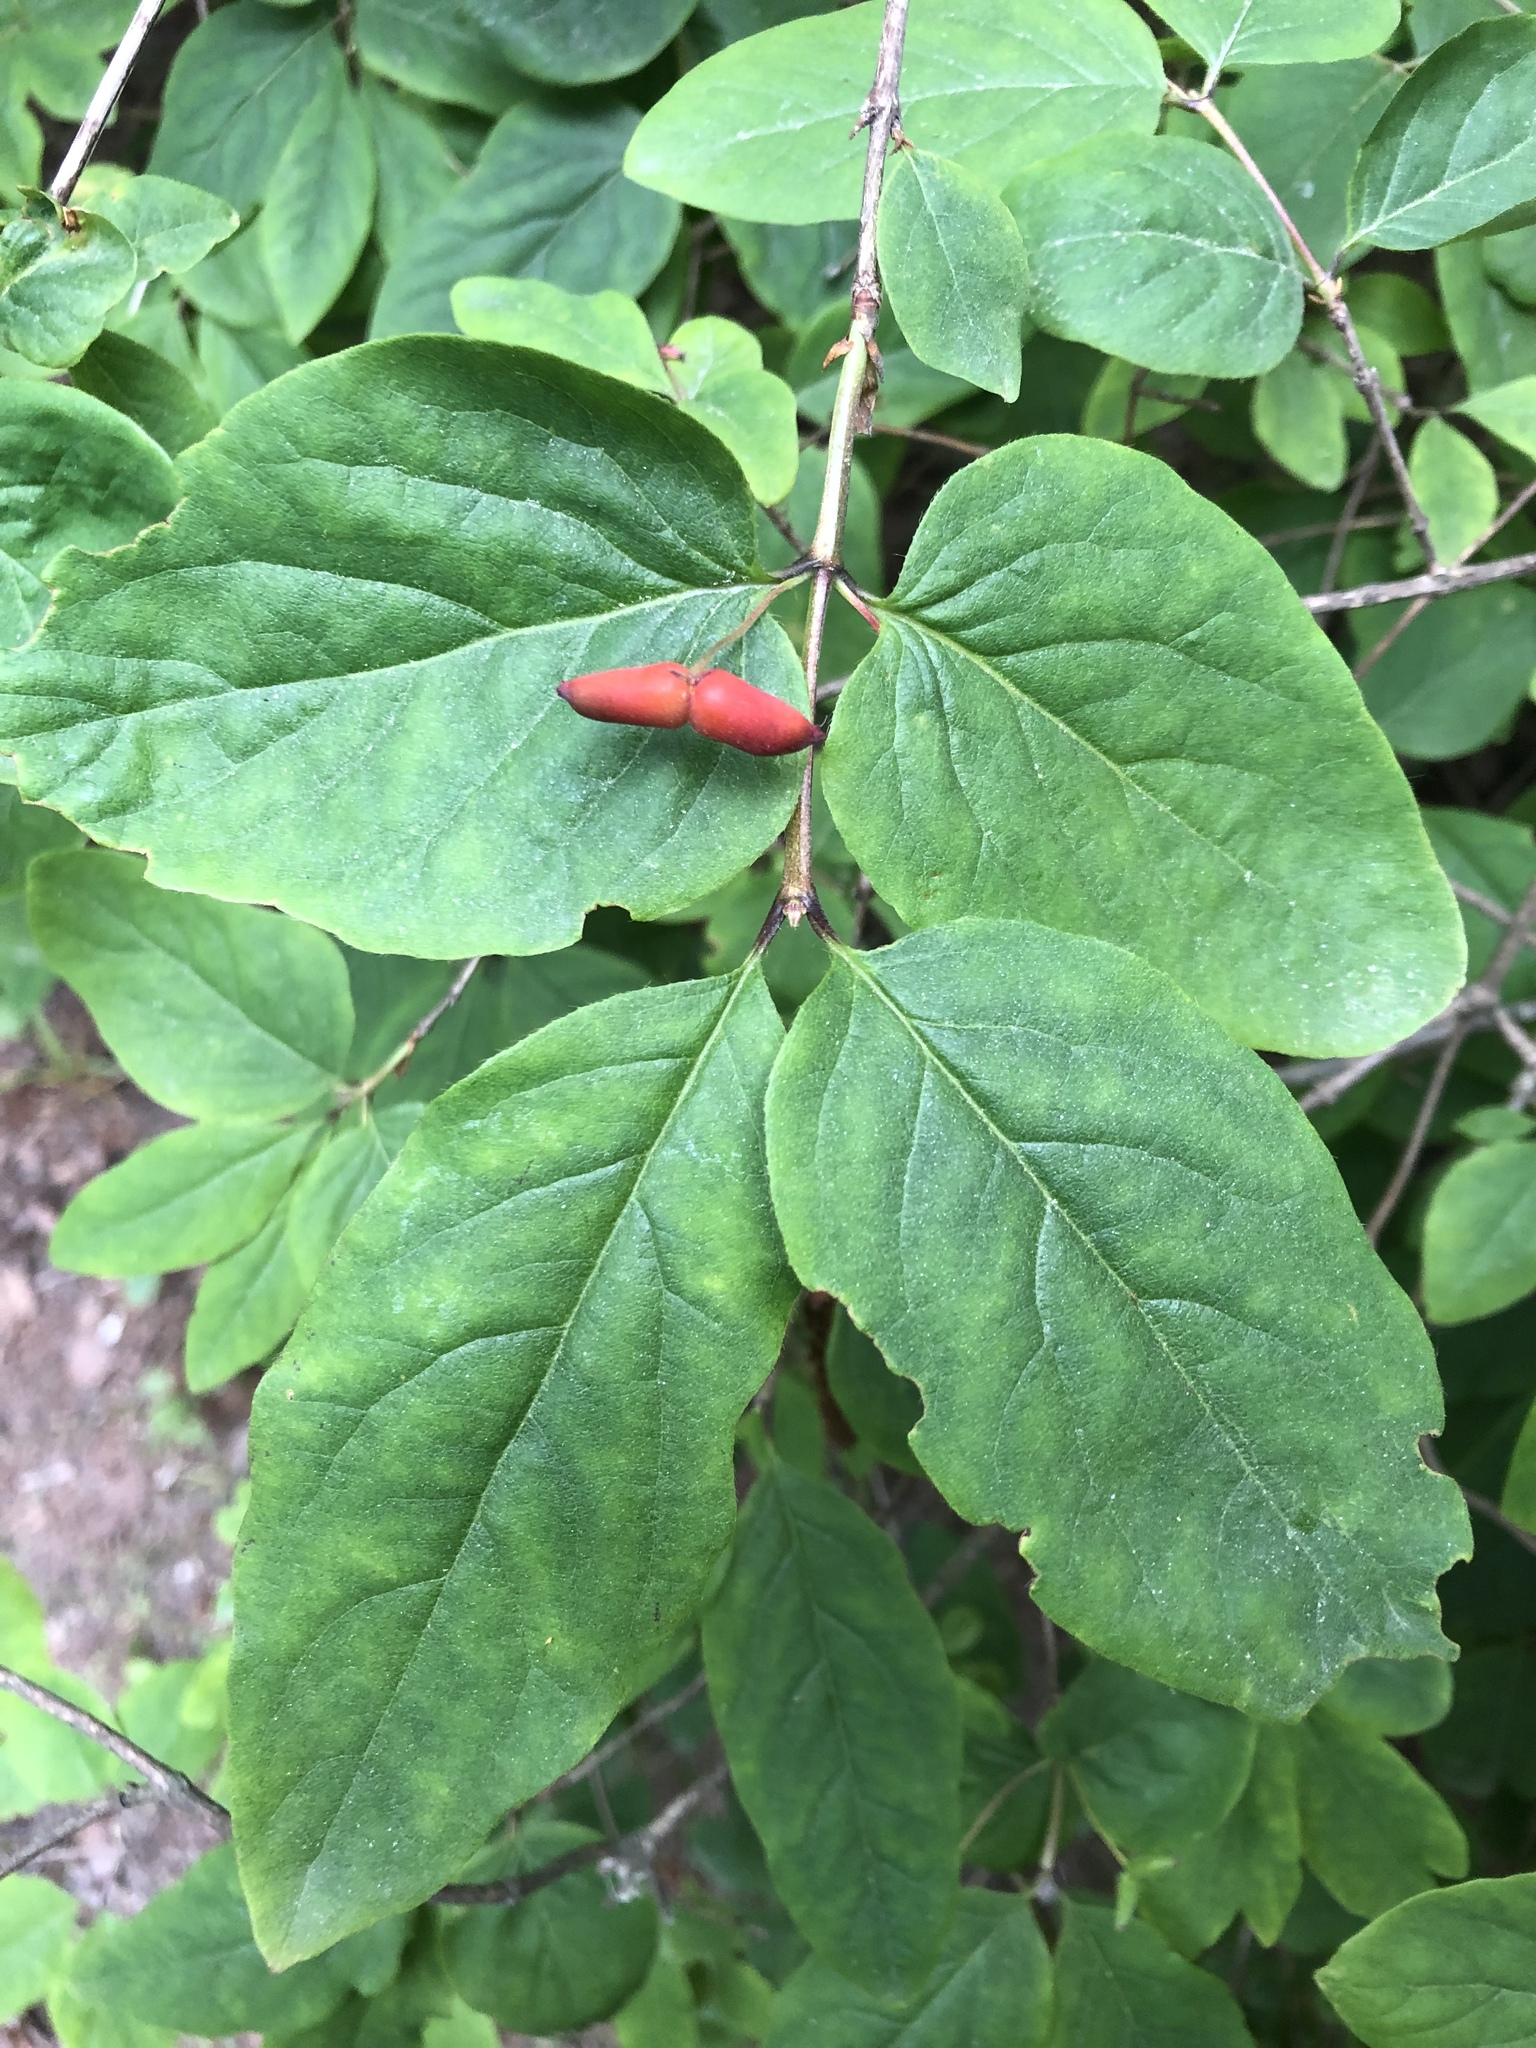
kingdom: Plantae
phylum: Tracheophyta
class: Magnoliopsida
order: Dipsacales
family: Caprifoliaceae
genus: Lonicera
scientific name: Lonicera canadensis
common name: American fly-honeysuckle
